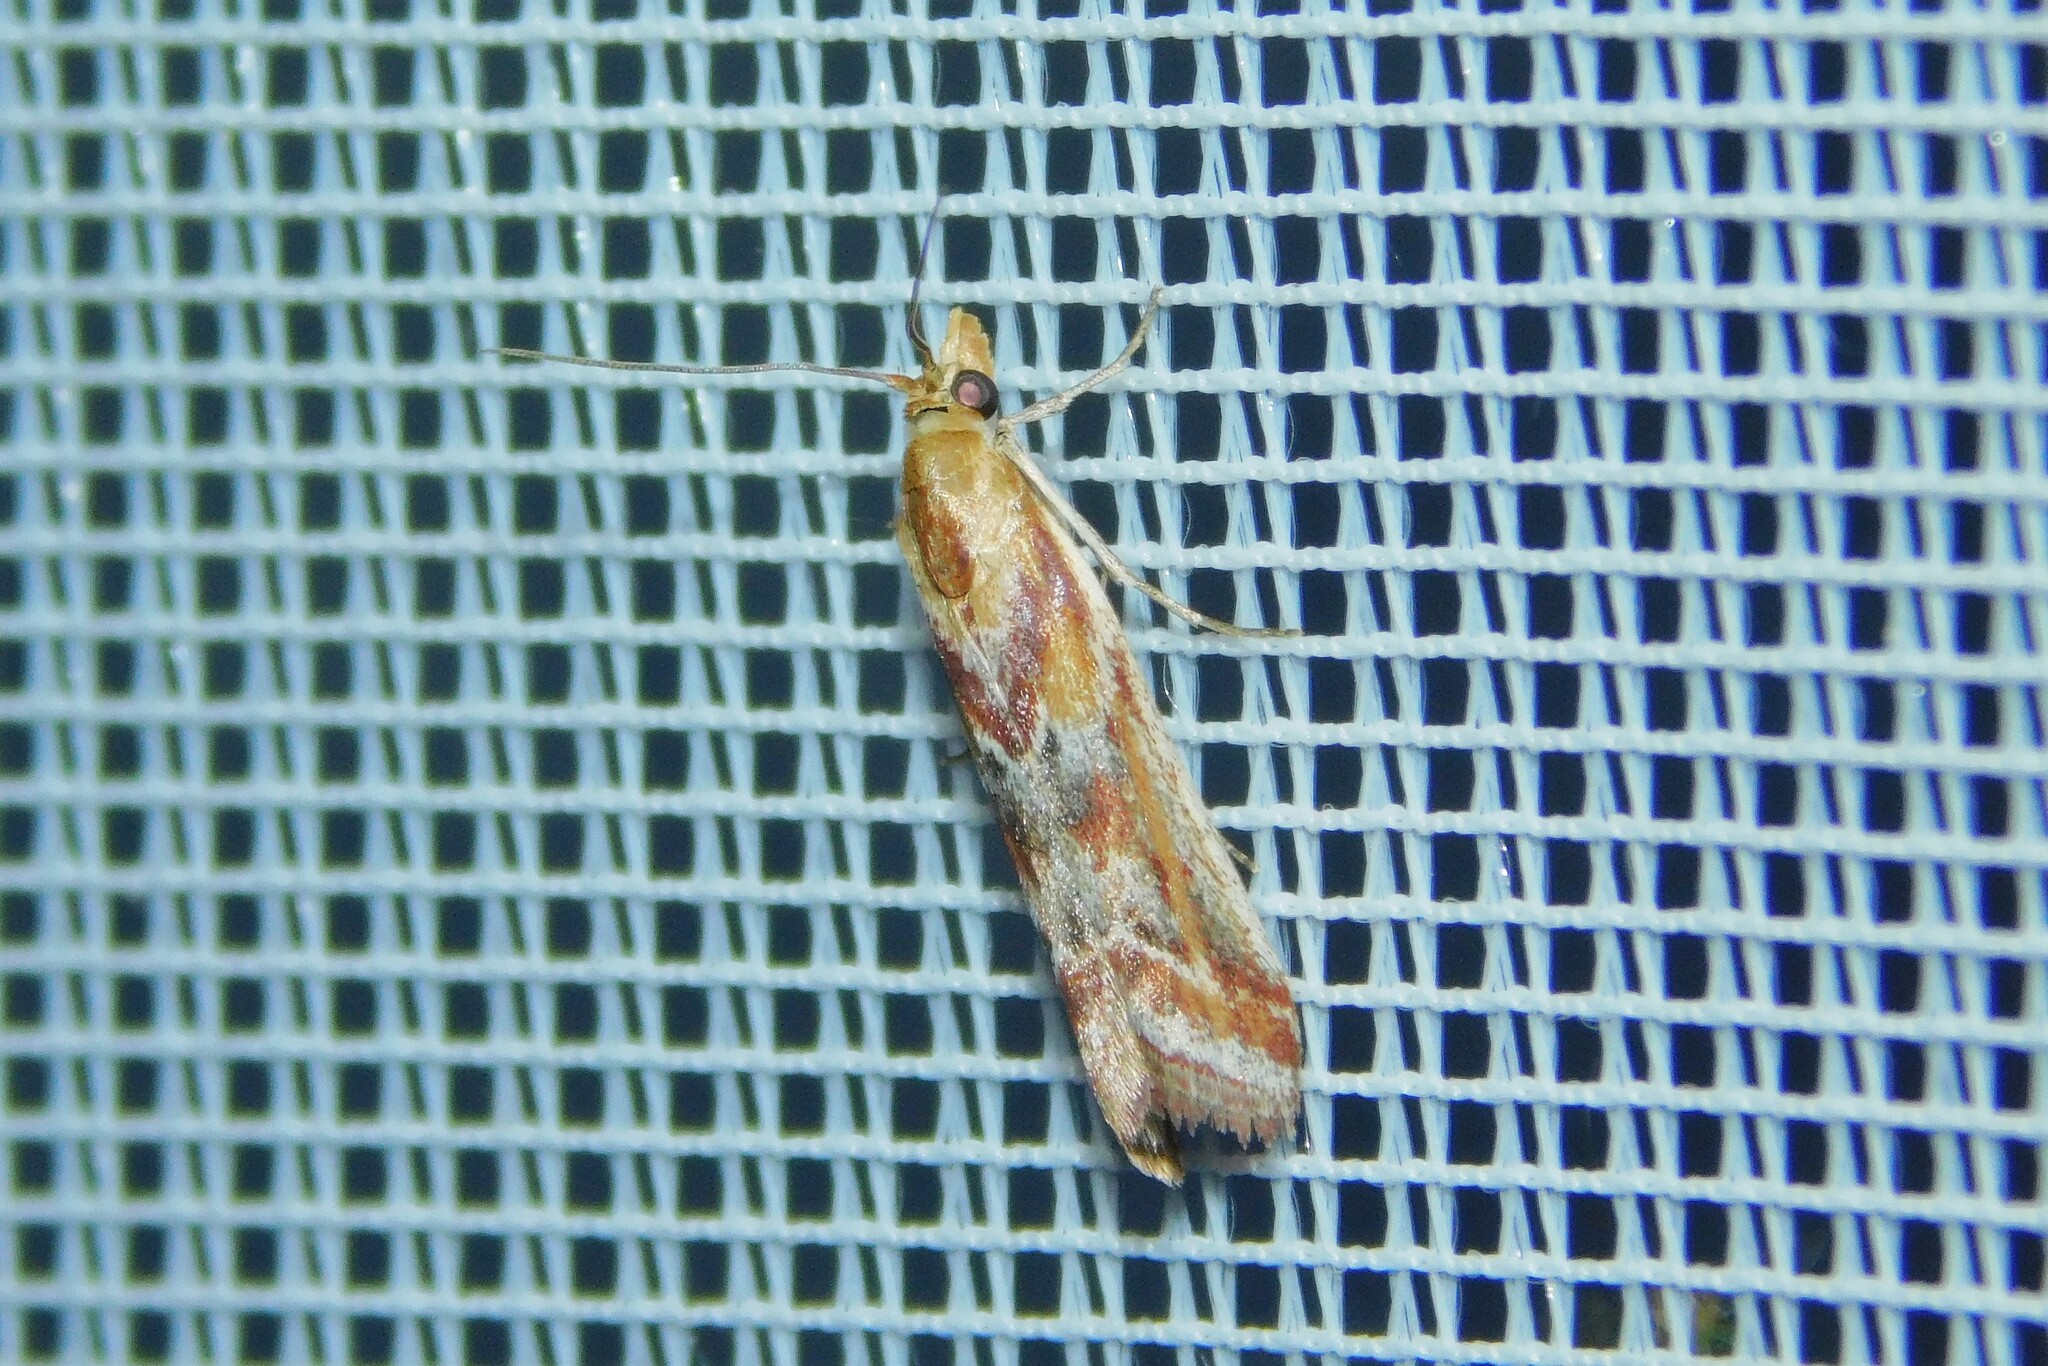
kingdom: Animalia
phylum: Arthropoda
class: Insecta
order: Lepidoptera
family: Pyralidae
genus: Ancylosis
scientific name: Ancylosis cinnamomella
